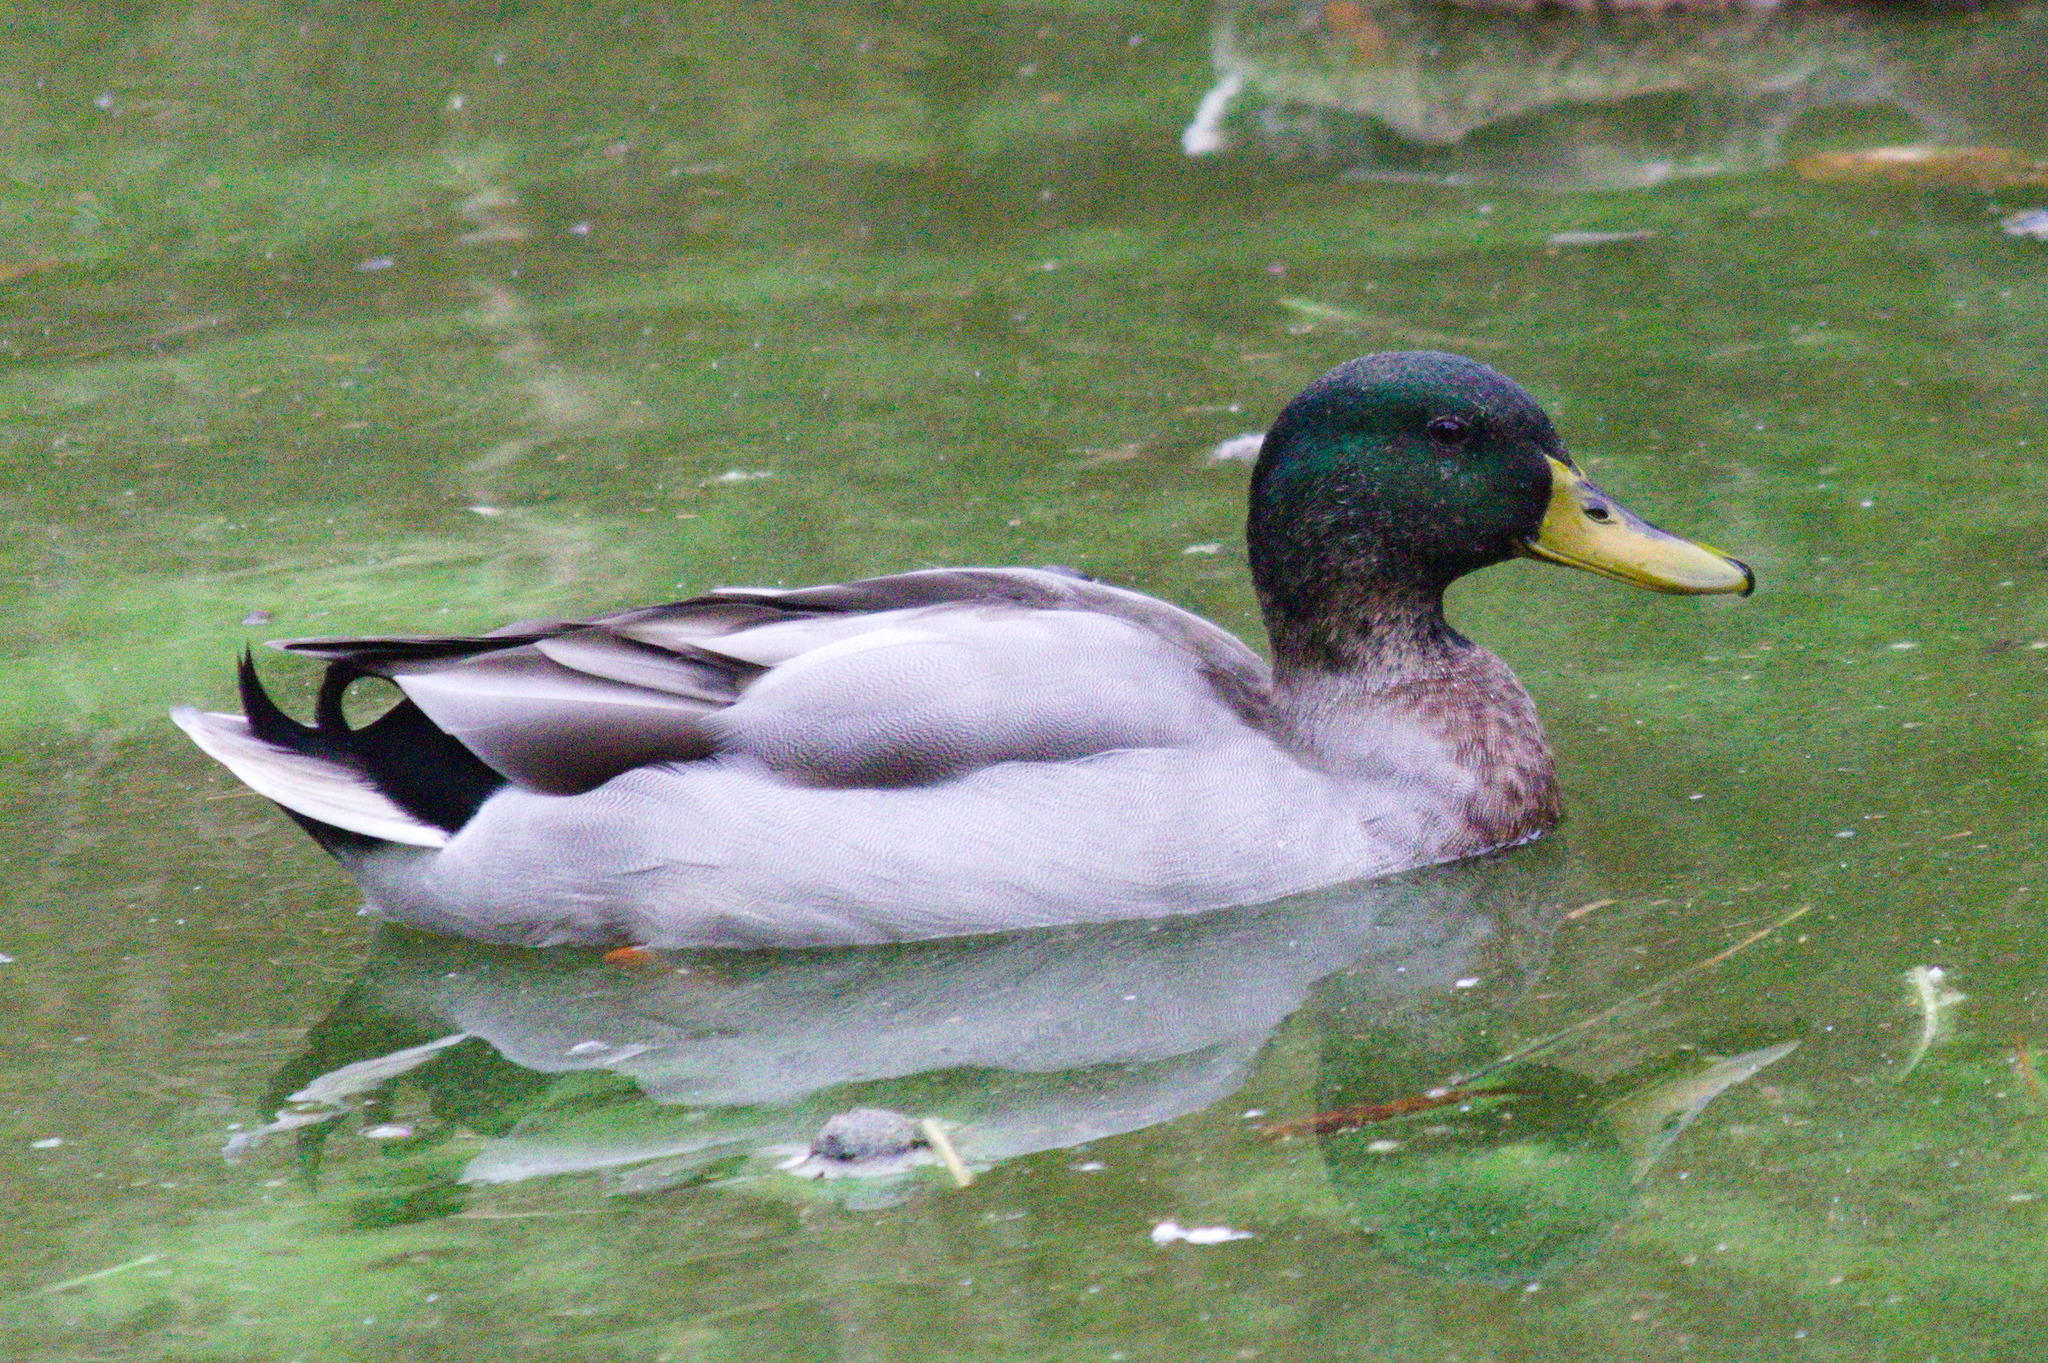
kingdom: Animalia
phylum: Chordata
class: Aves
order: Anseriformes
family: Anatidae
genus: Anas
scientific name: Anas platyrhynchos
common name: Mallard
